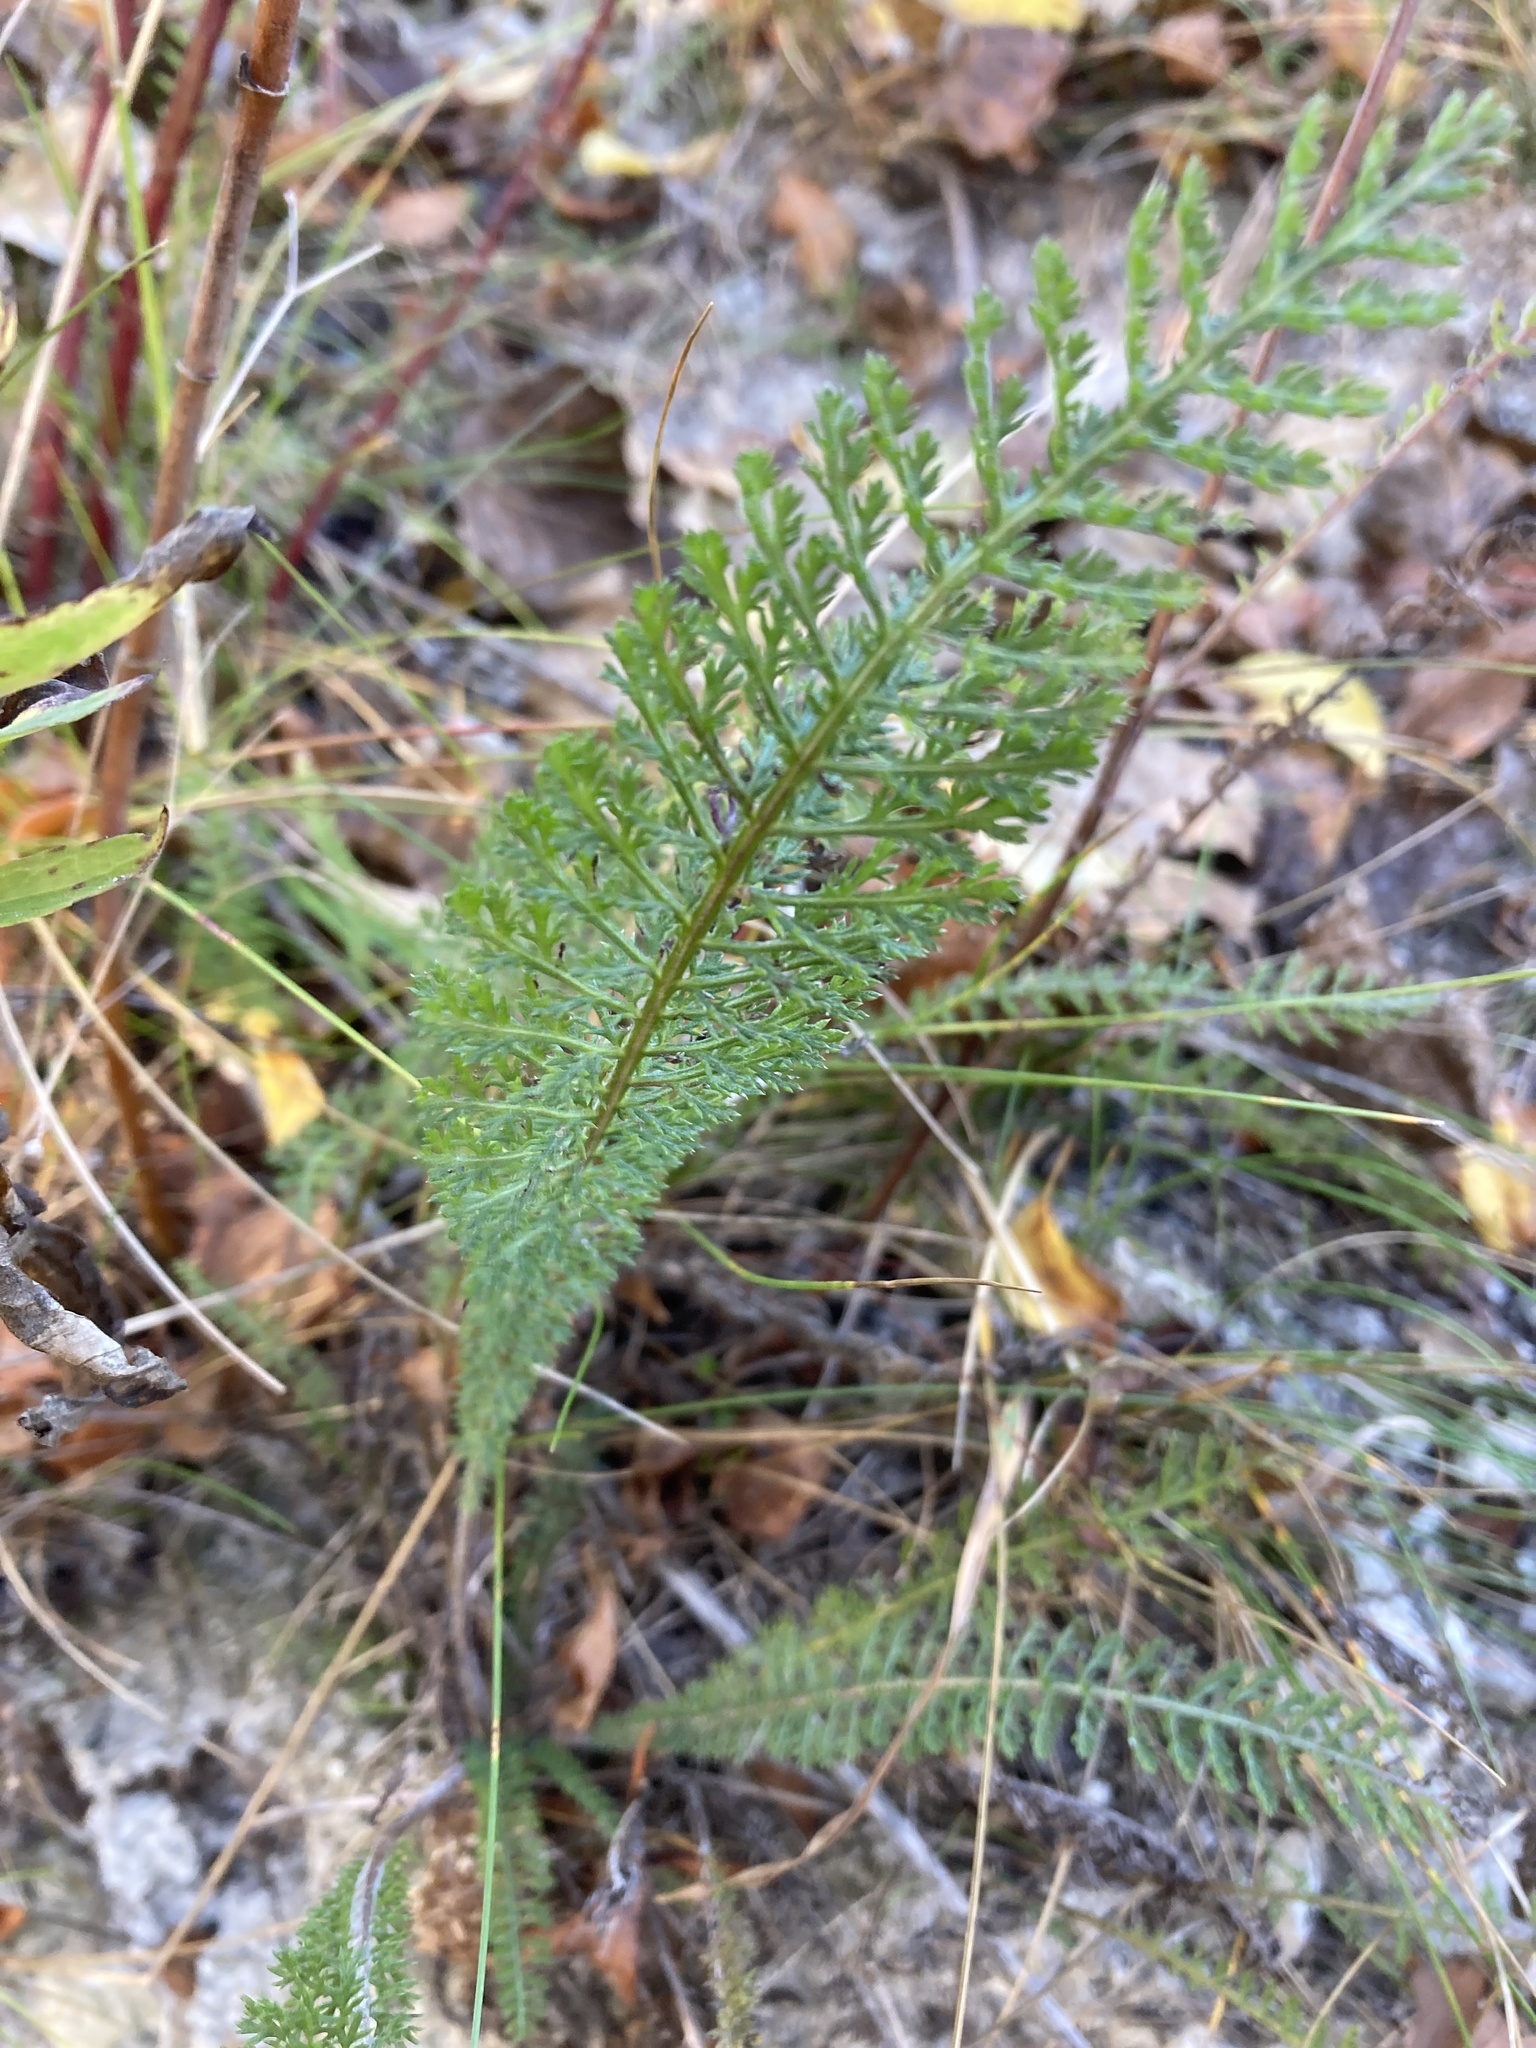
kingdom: Plantae
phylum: Tracheophyta
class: Magnoliopsida
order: Asterales
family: Asteraceae
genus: Achillea
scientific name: Achillea millefolium
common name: Yarrow
